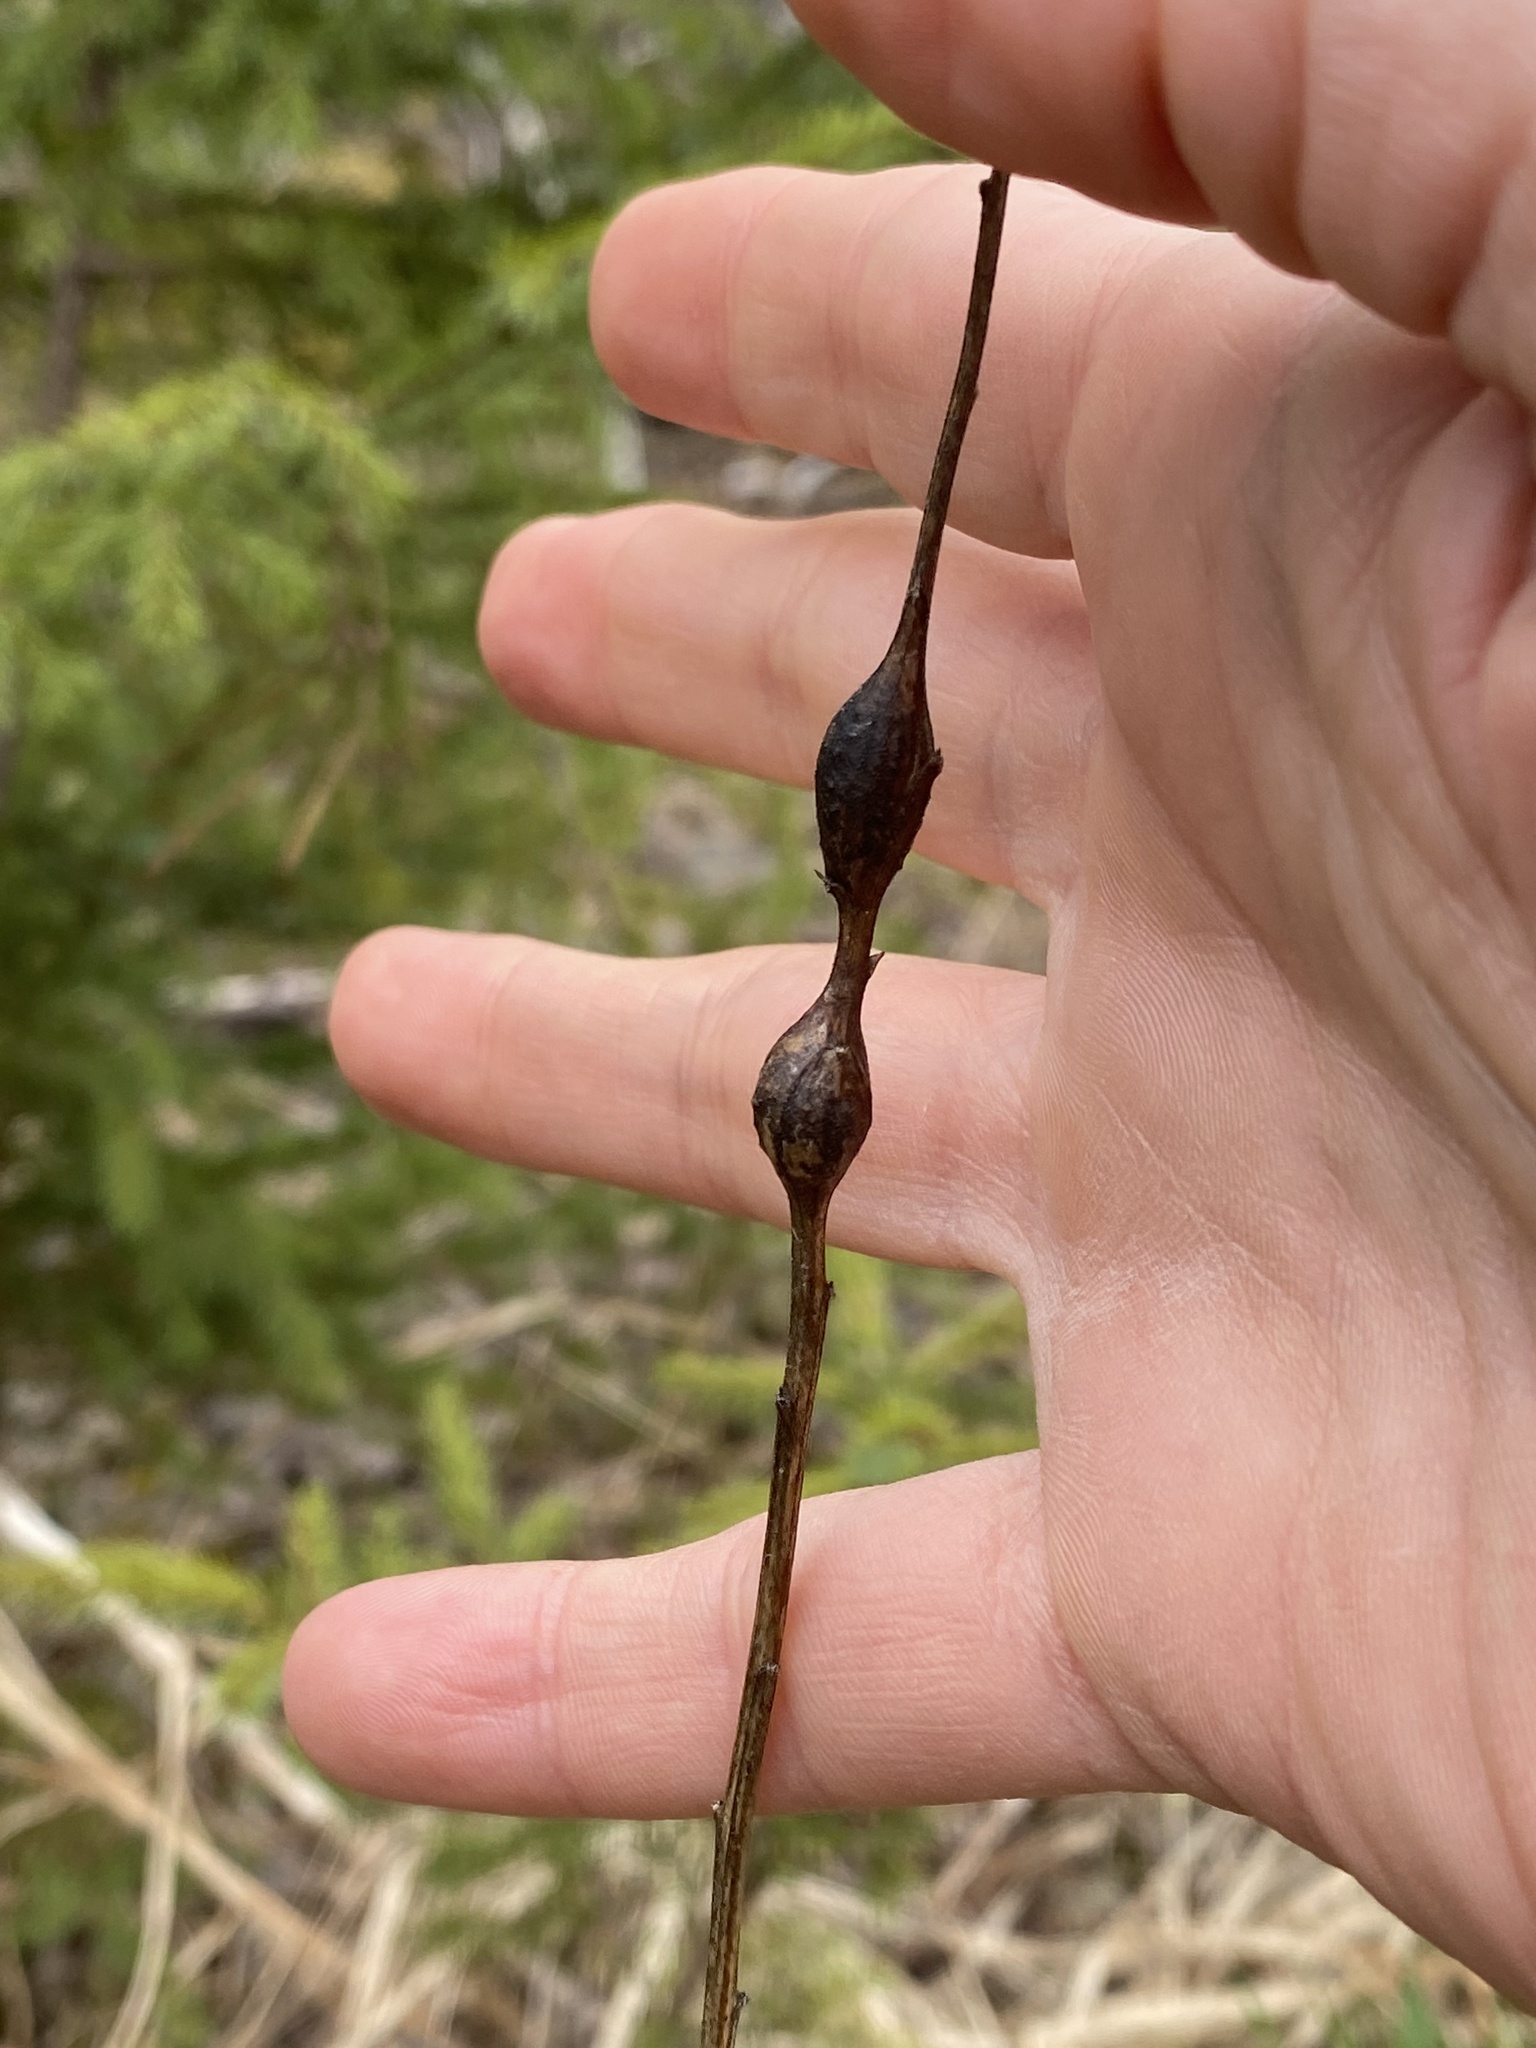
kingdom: Animalia
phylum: Arthropoda
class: Insecta
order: Diptera
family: Tephritidae
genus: Eurosta
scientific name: Eurosta solidaginis
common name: Goldenrod gall fly
